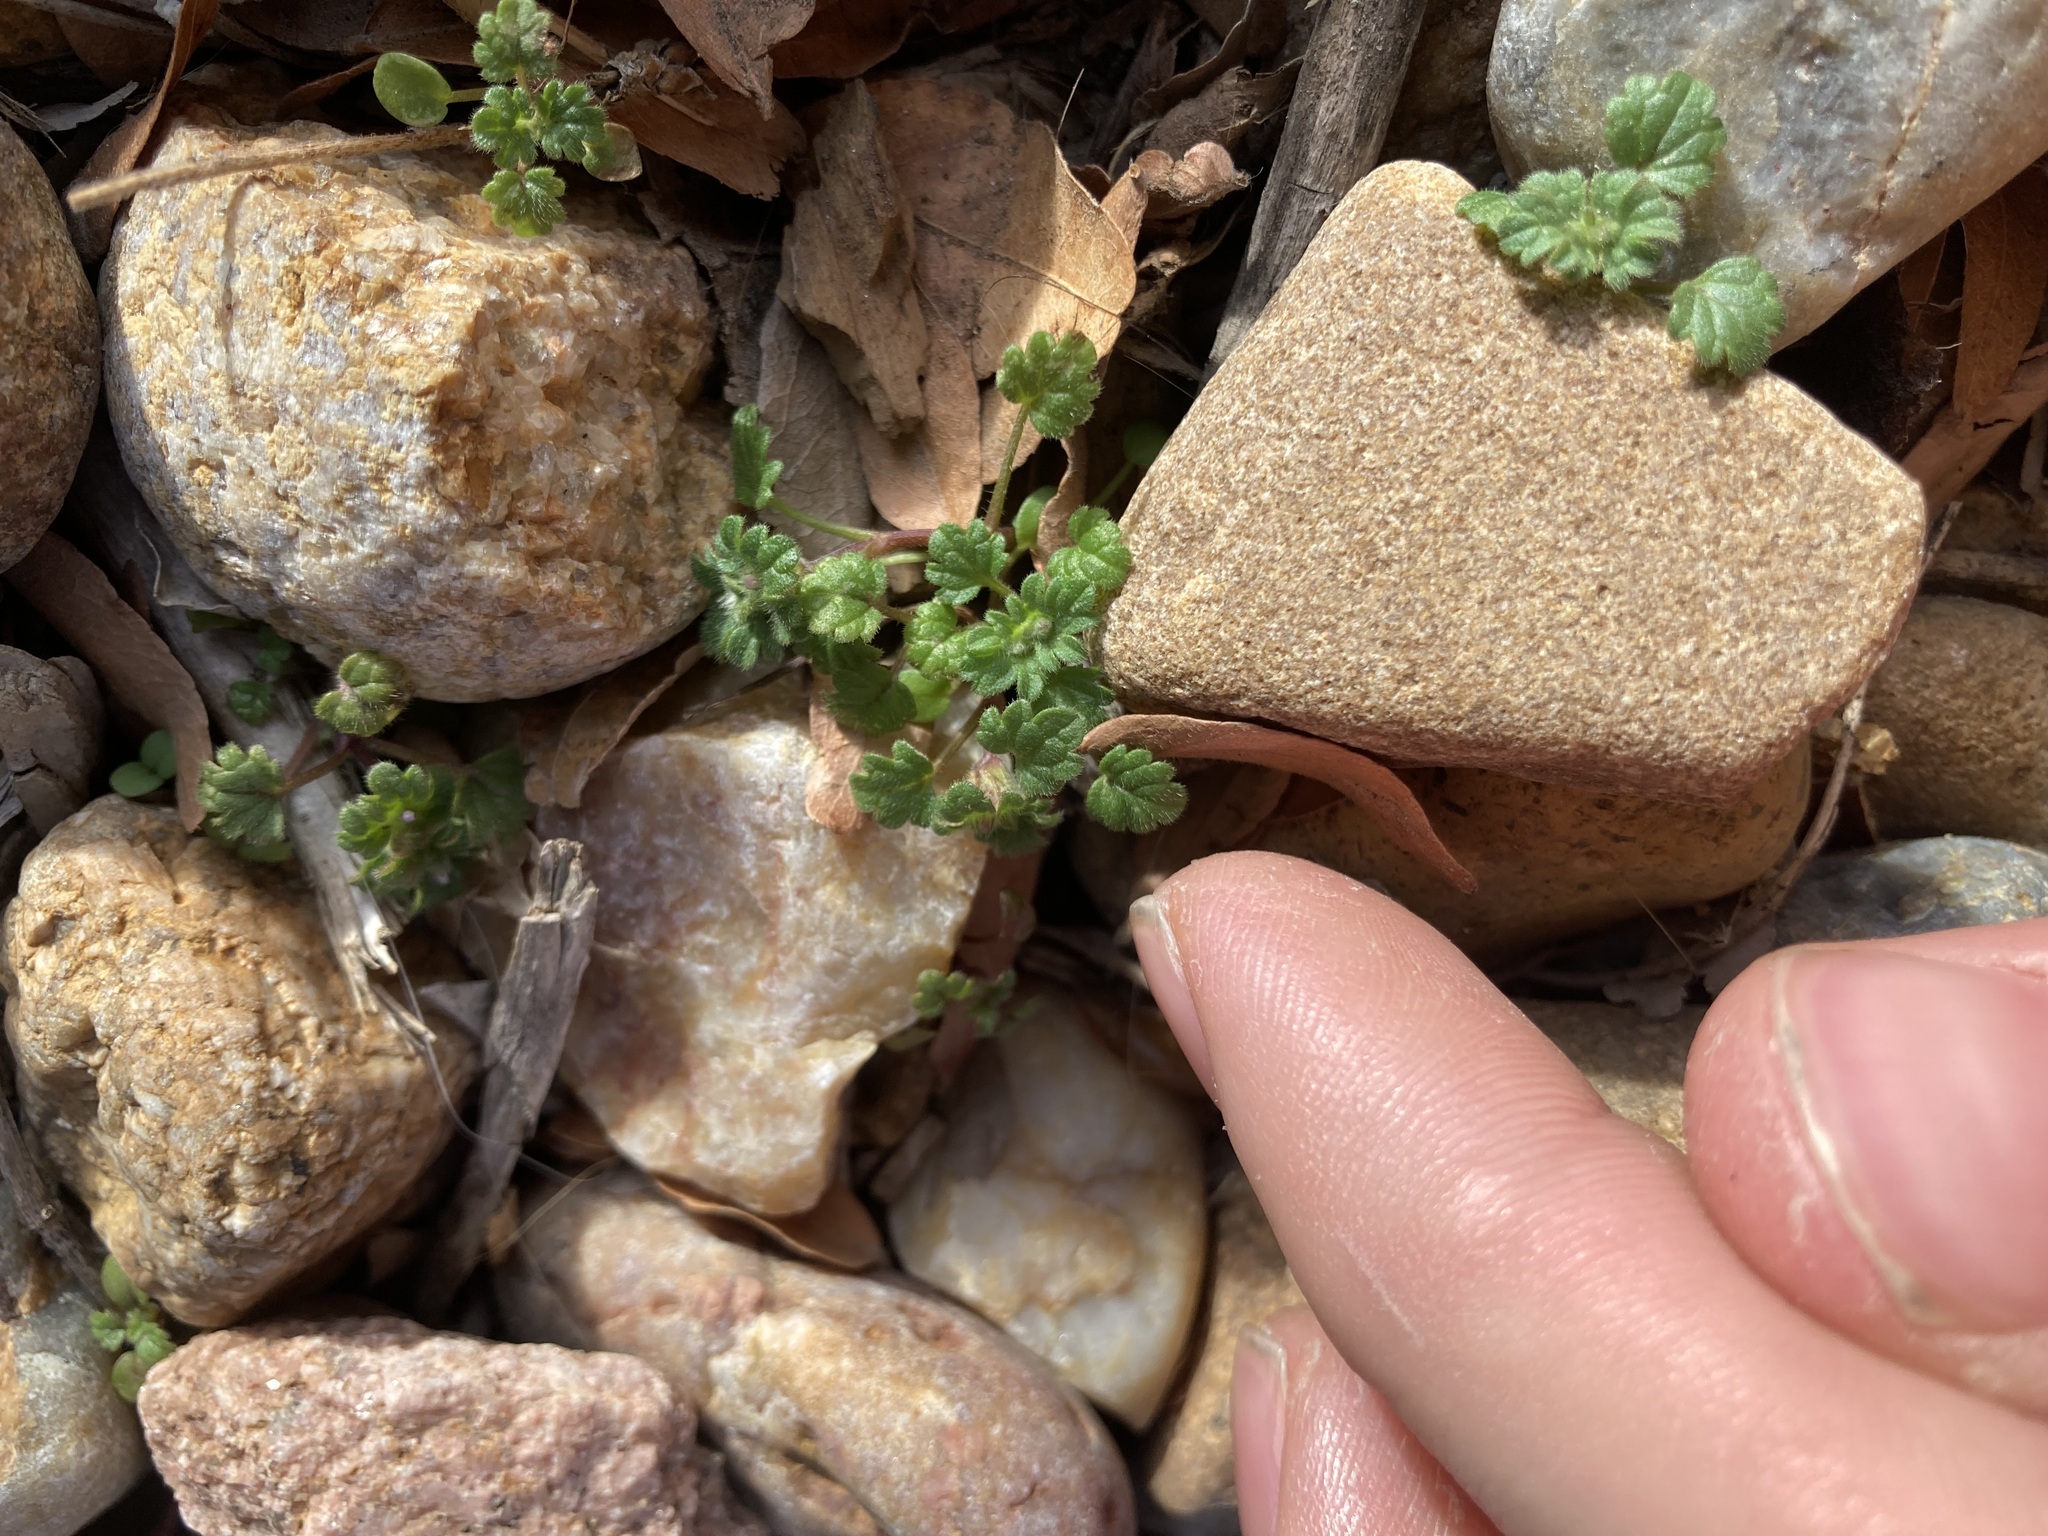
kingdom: Plantae
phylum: Tracheophyta
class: Magnoliopsida
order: Lamiales
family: Lamiaceae
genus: Lamium
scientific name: Lamium amplexicaule
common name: Henbit dead-nettle
